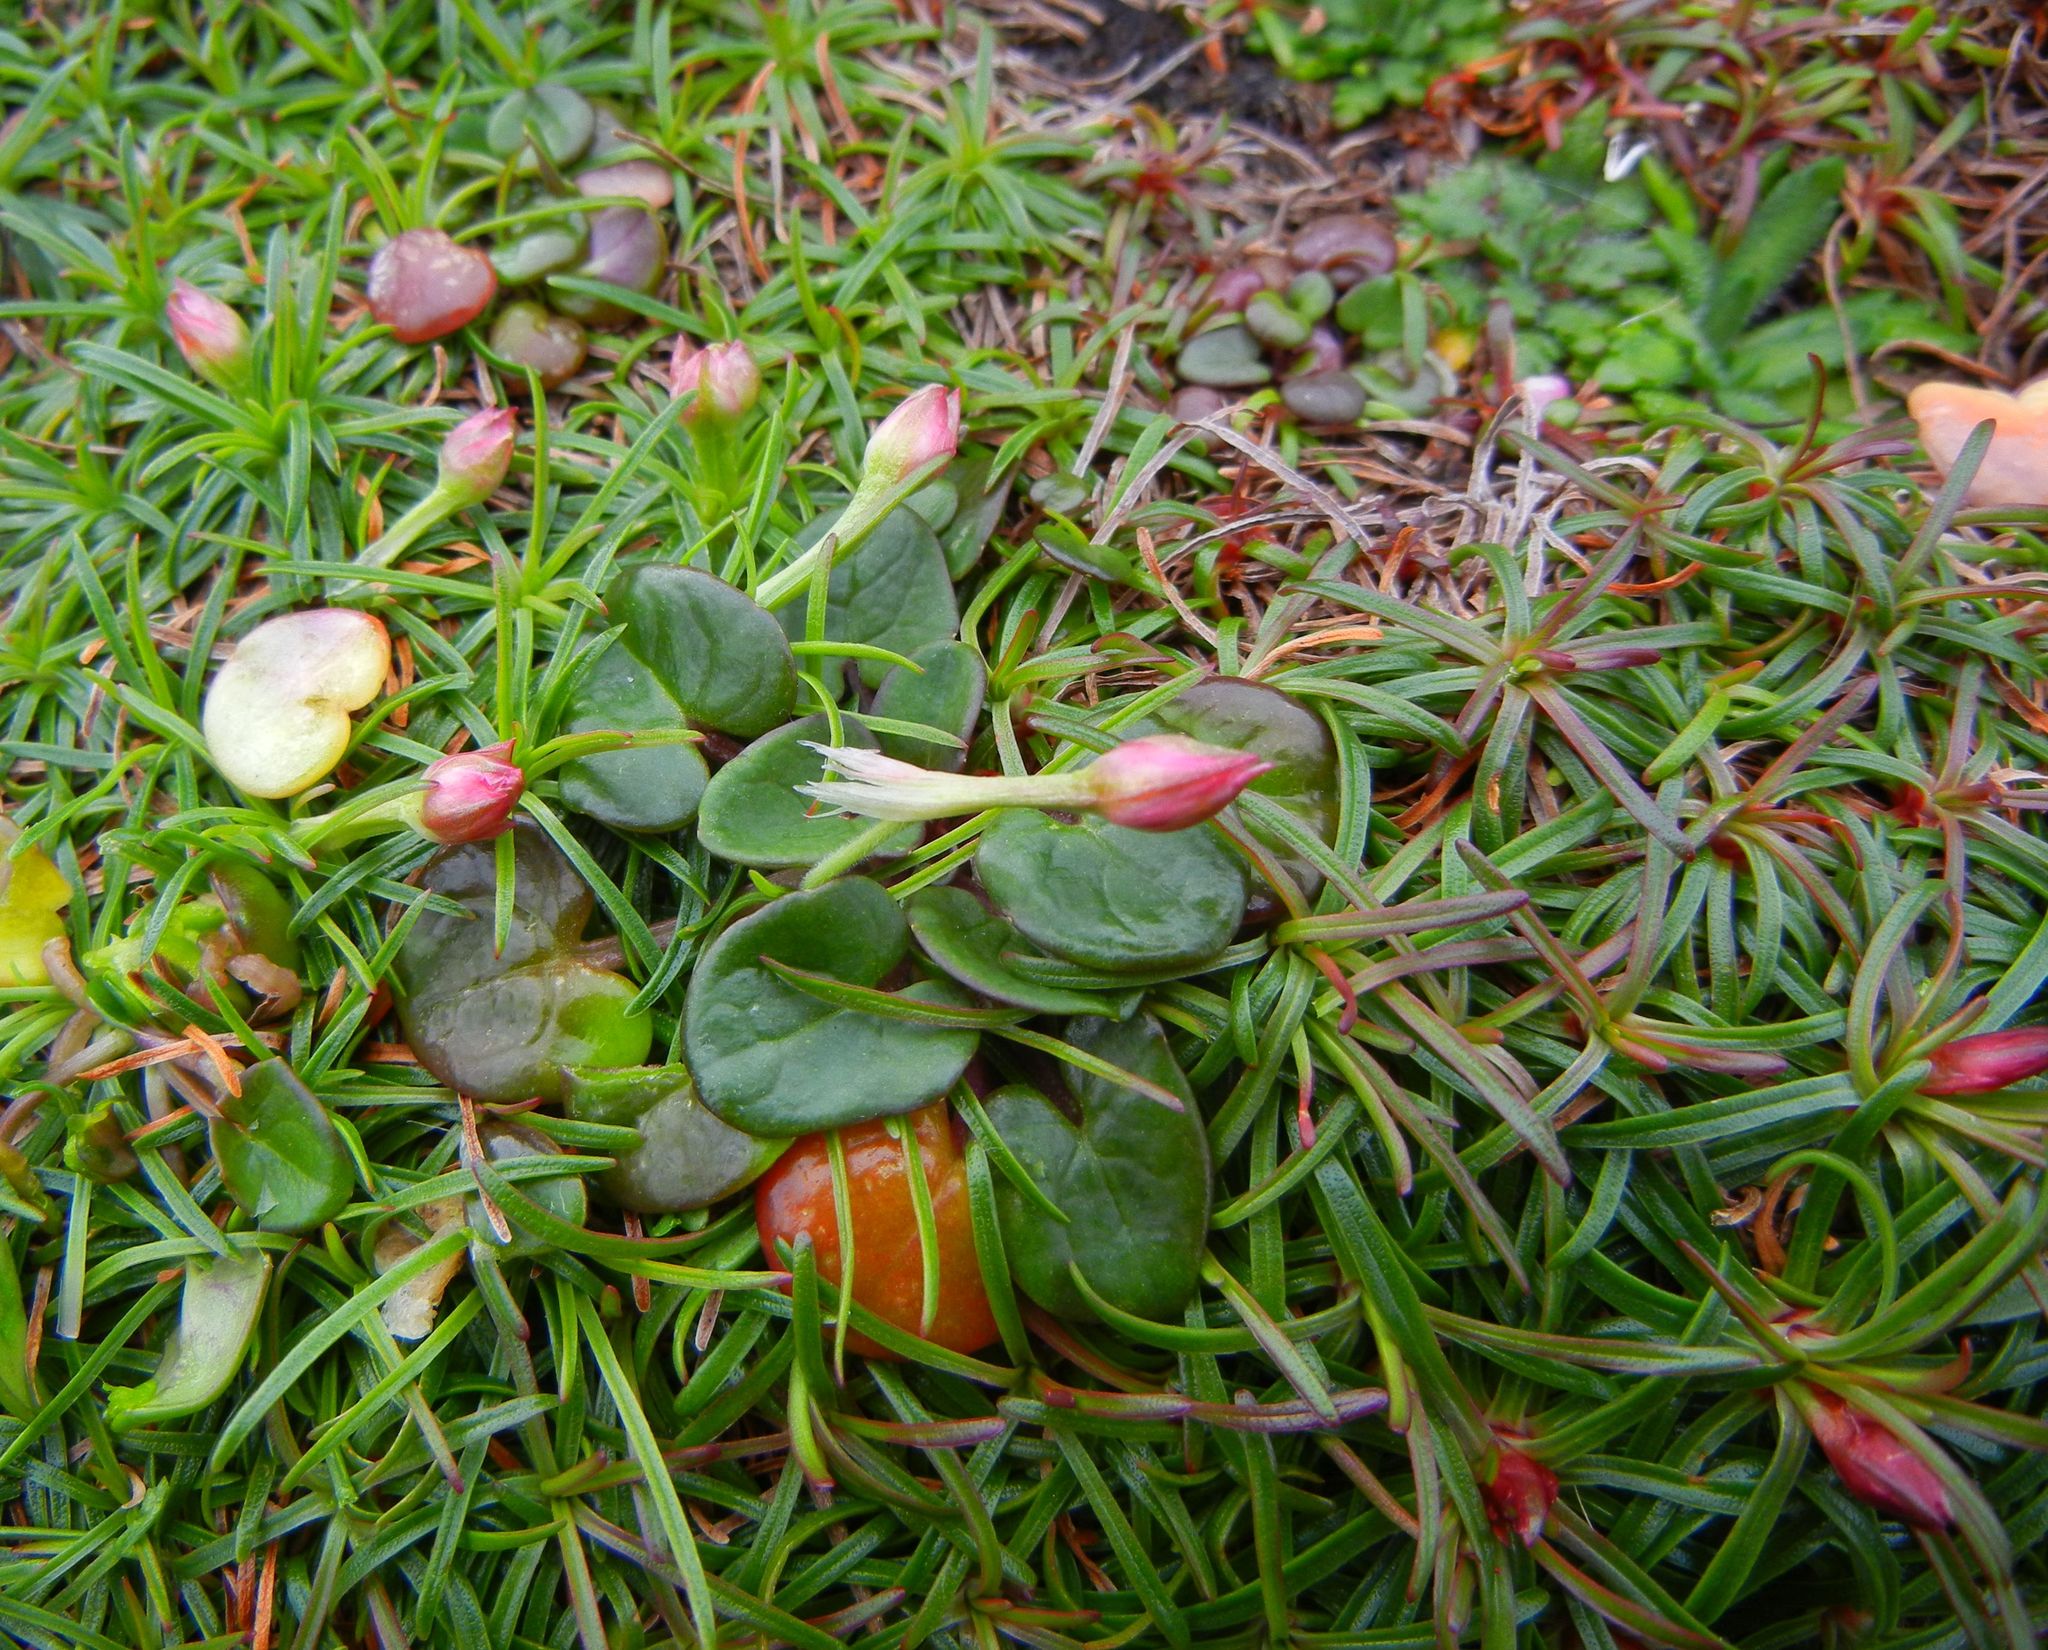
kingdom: Plantae
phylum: Tracheophyta
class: Magnoliopsida
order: Caryophyllales
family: Plumbaginaceae
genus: Armeria
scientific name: Armeria maritima
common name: Thrift
